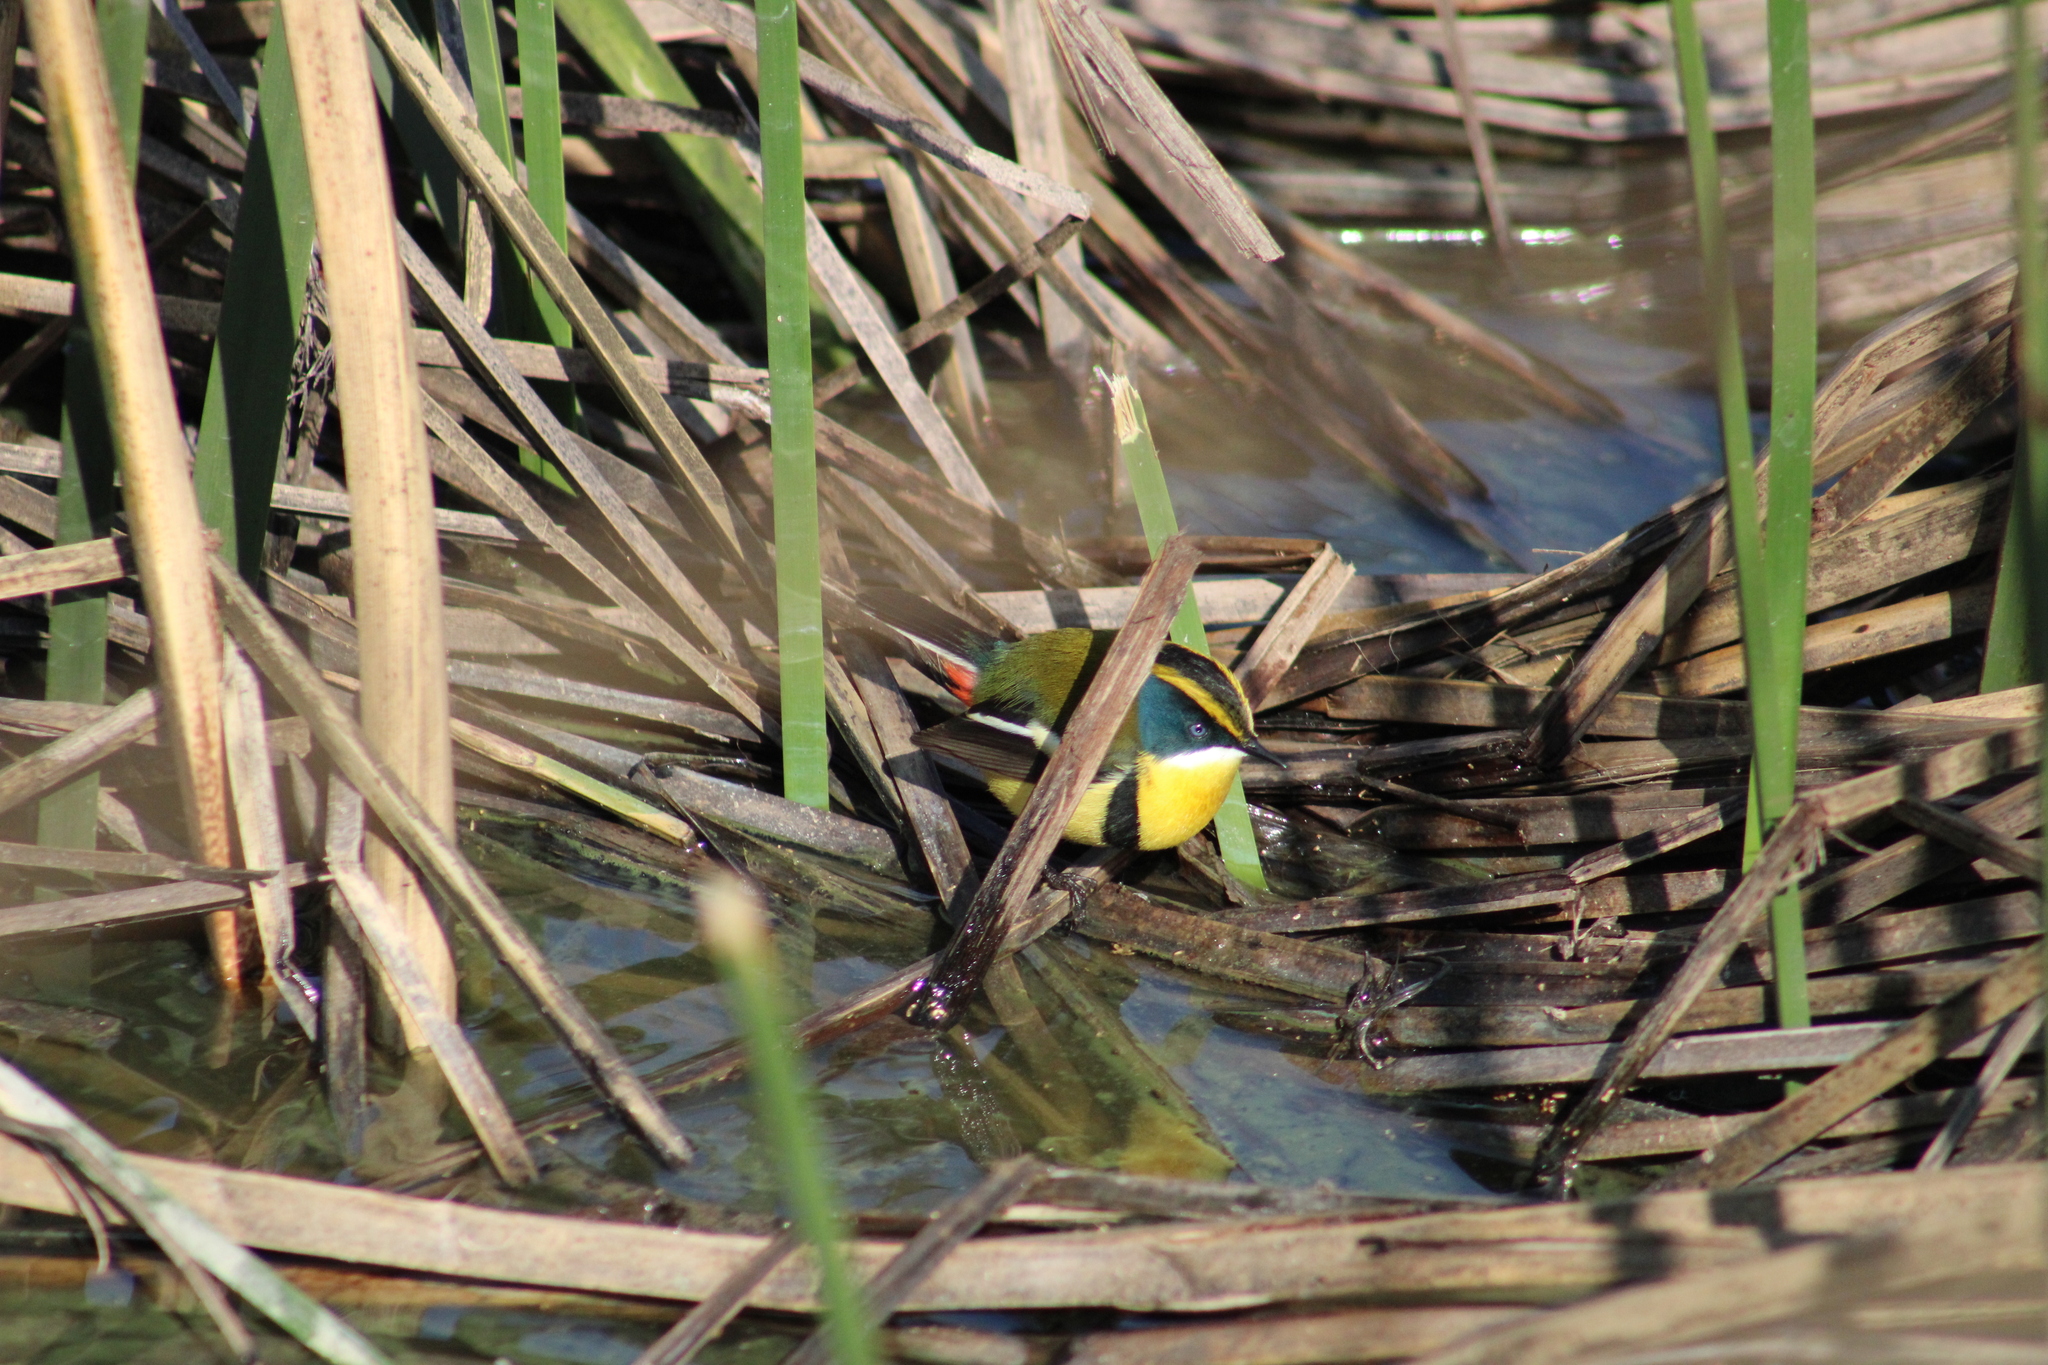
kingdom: Animalia
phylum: Chordata
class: Aves
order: Passeriformes
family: Tyrannidae
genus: Tachuris
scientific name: Tachuris rubrigastra
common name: Many-colored rush tyrant
